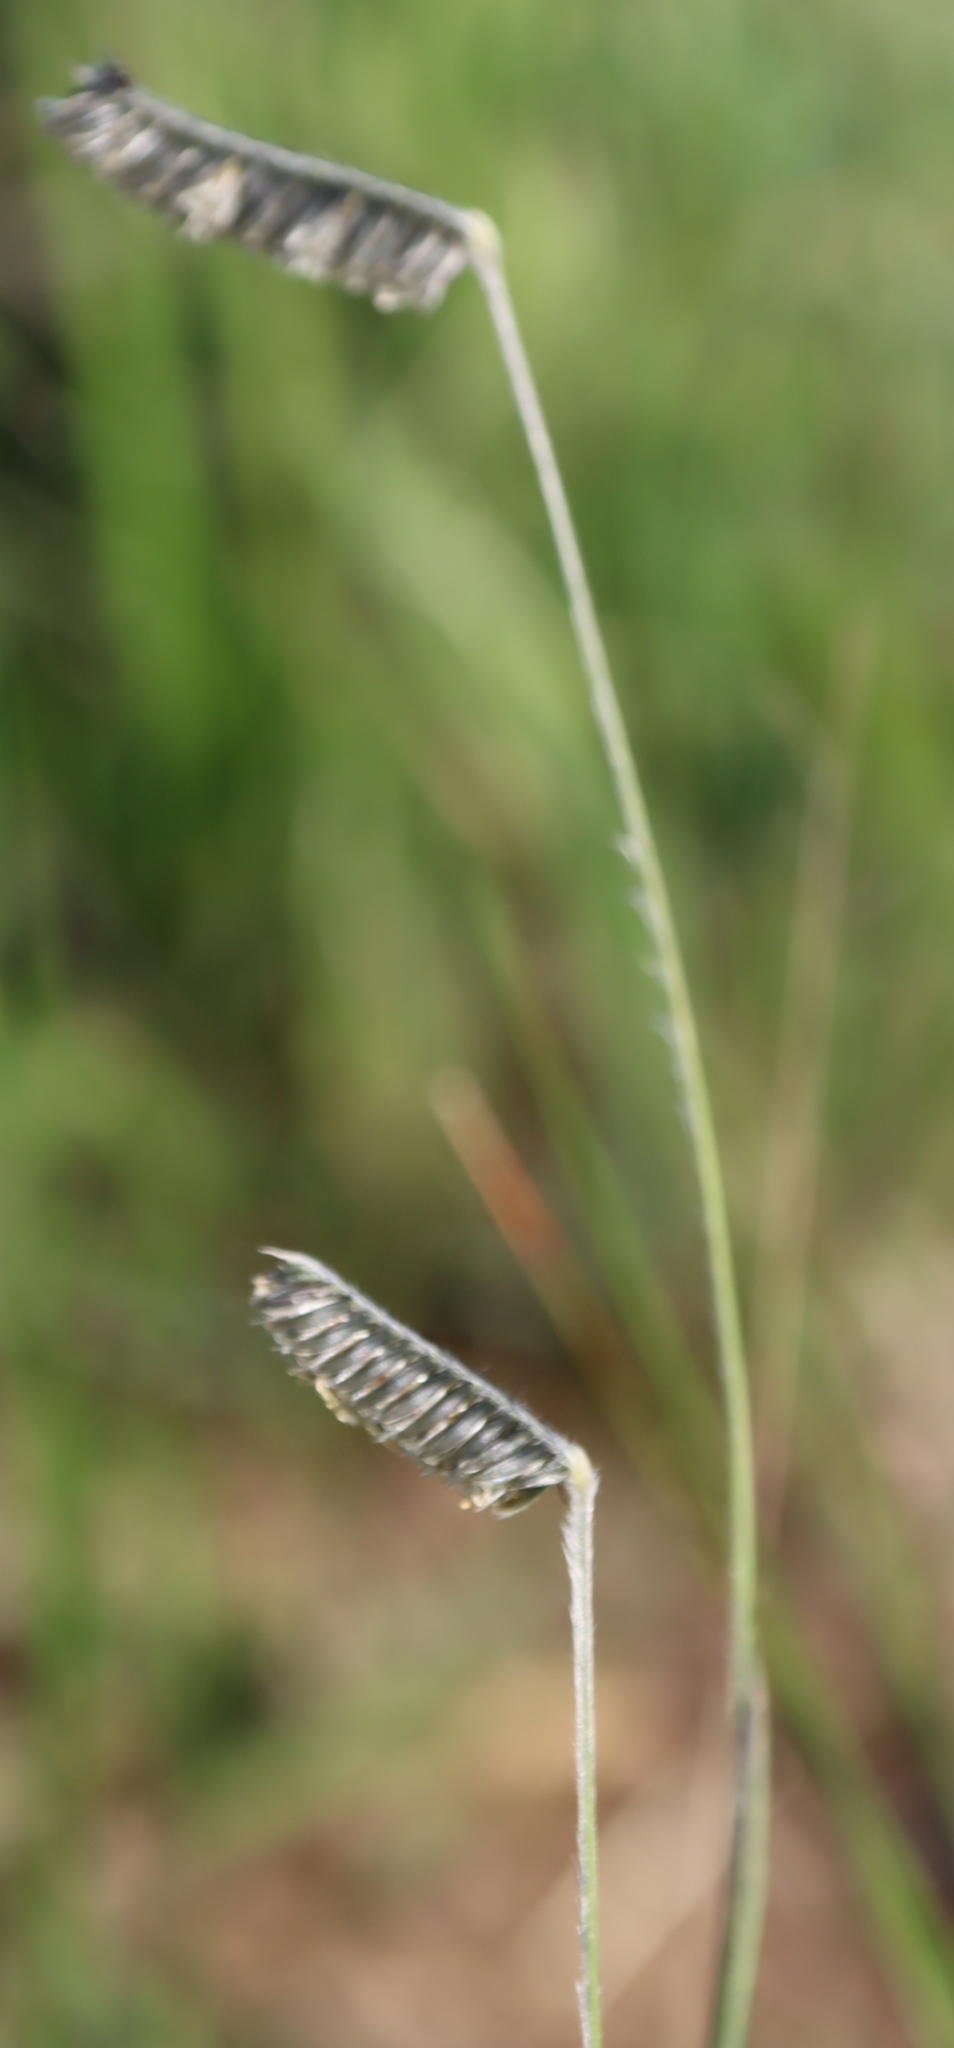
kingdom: Plantae
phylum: Tracheophyta
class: Liliopsida
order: Poales
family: Poaceae
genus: Harpochloa
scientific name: Harpochloa falx
